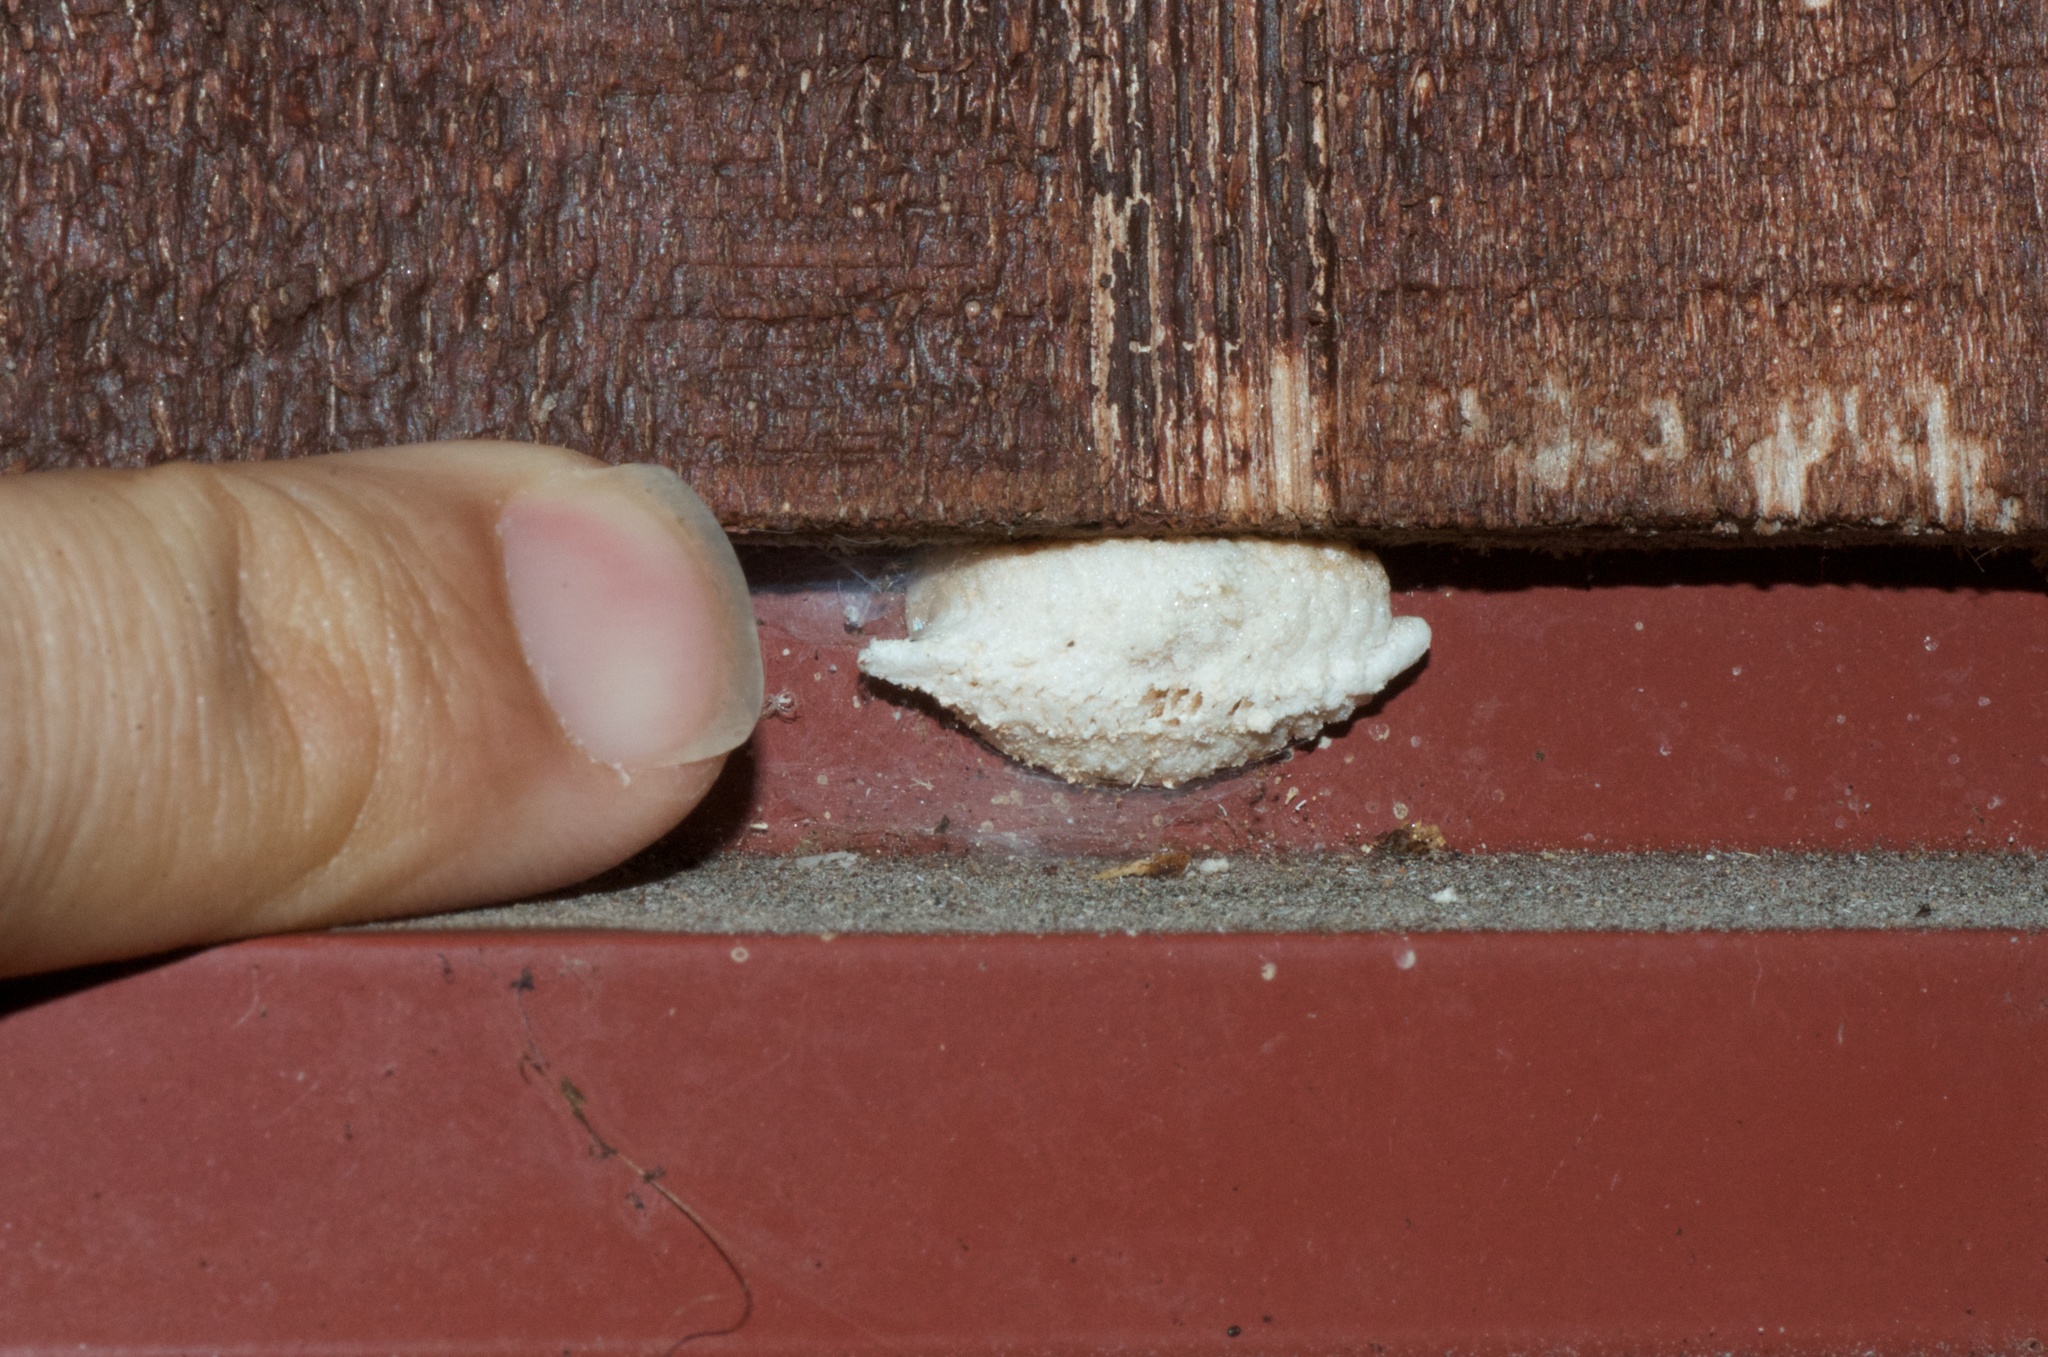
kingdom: Animalia
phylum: Arthropoda
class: Insecta
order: Mantodea
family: Miomantidae
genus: Miomantis
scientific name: Miomantis caffra
